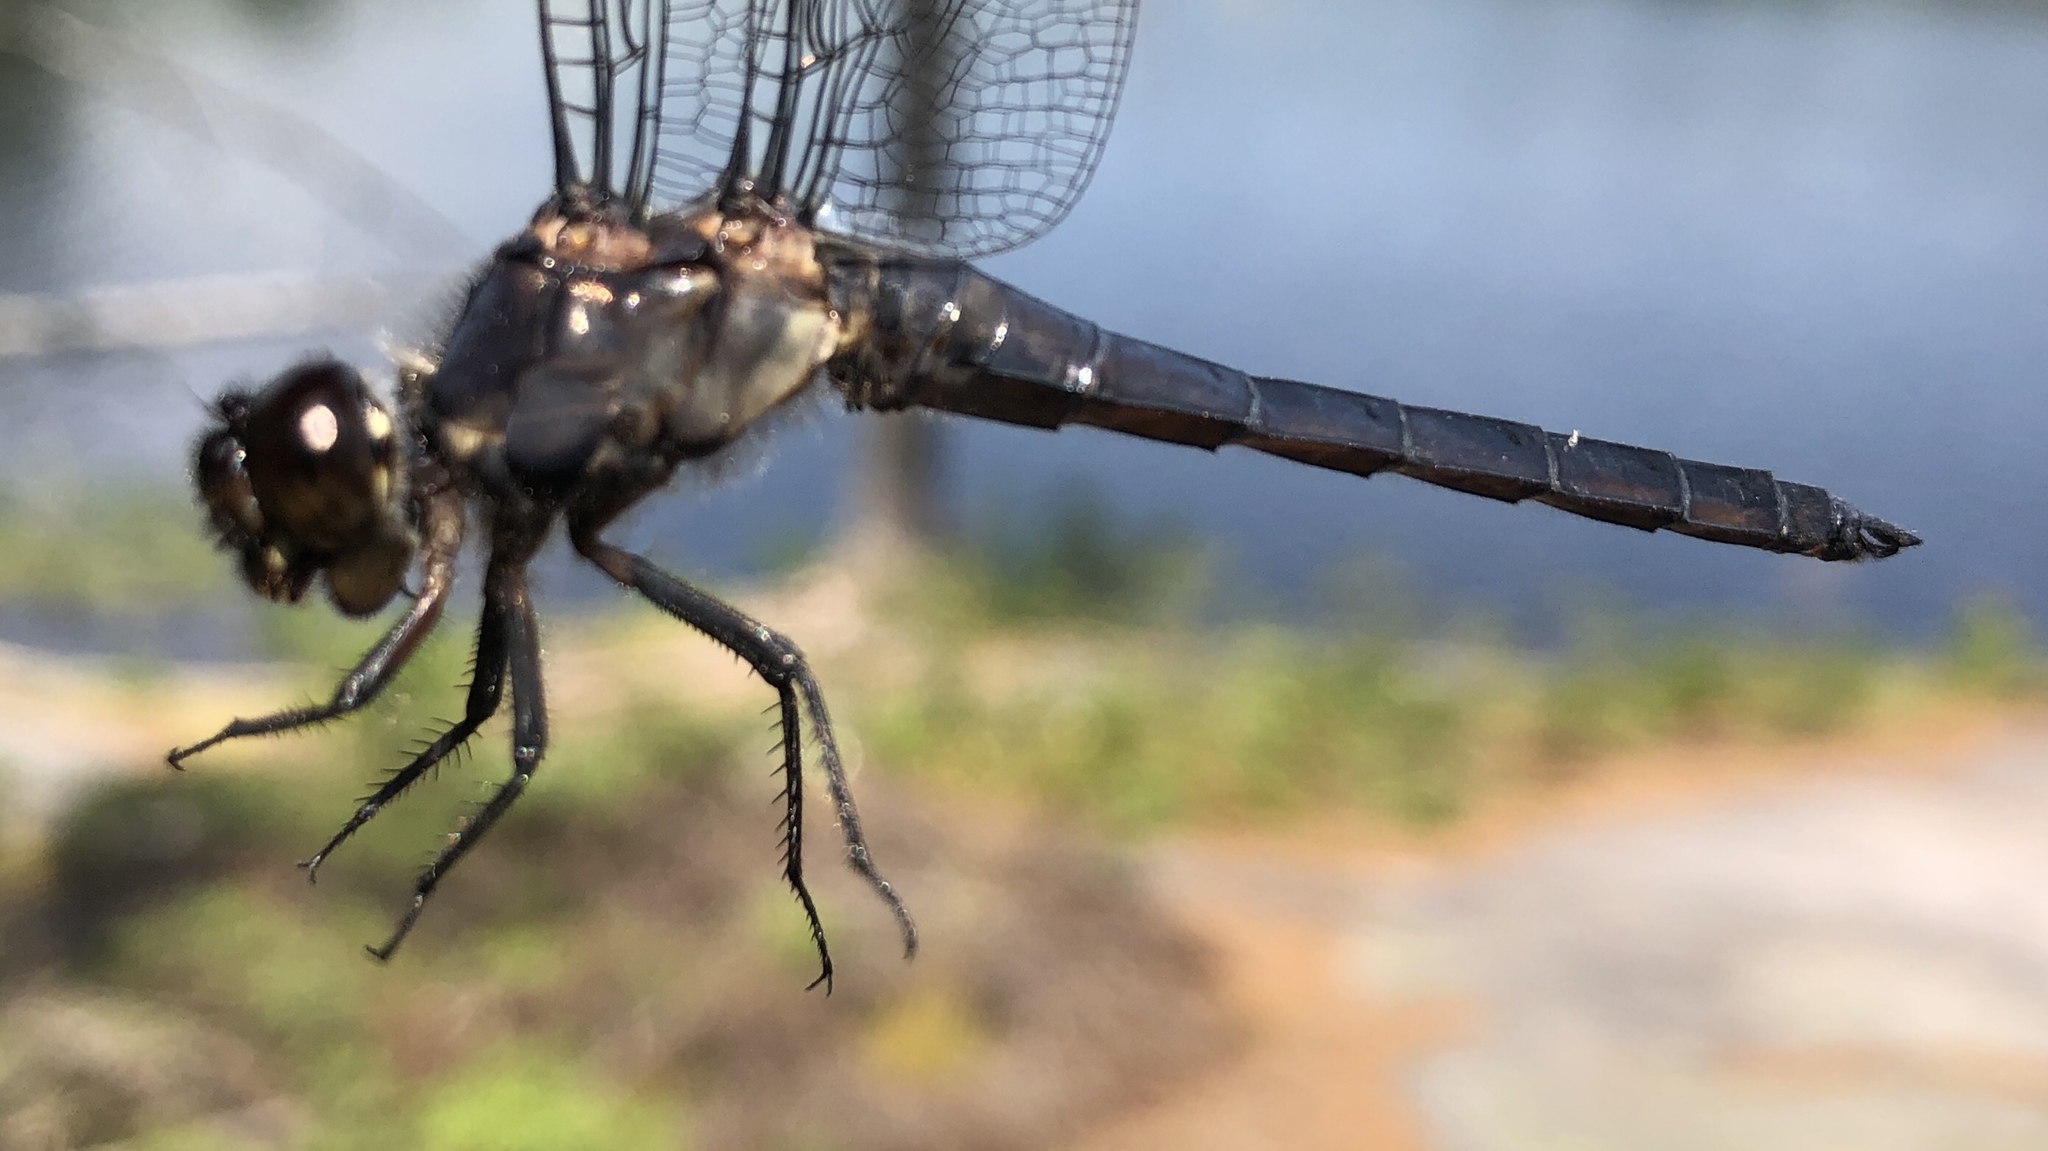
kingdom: Animalia
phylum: Arthropoda
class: Insecta
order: Odonata
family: Libellulidae
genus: Libellula
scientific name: Libellula incesta
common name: Slaty skimmer
